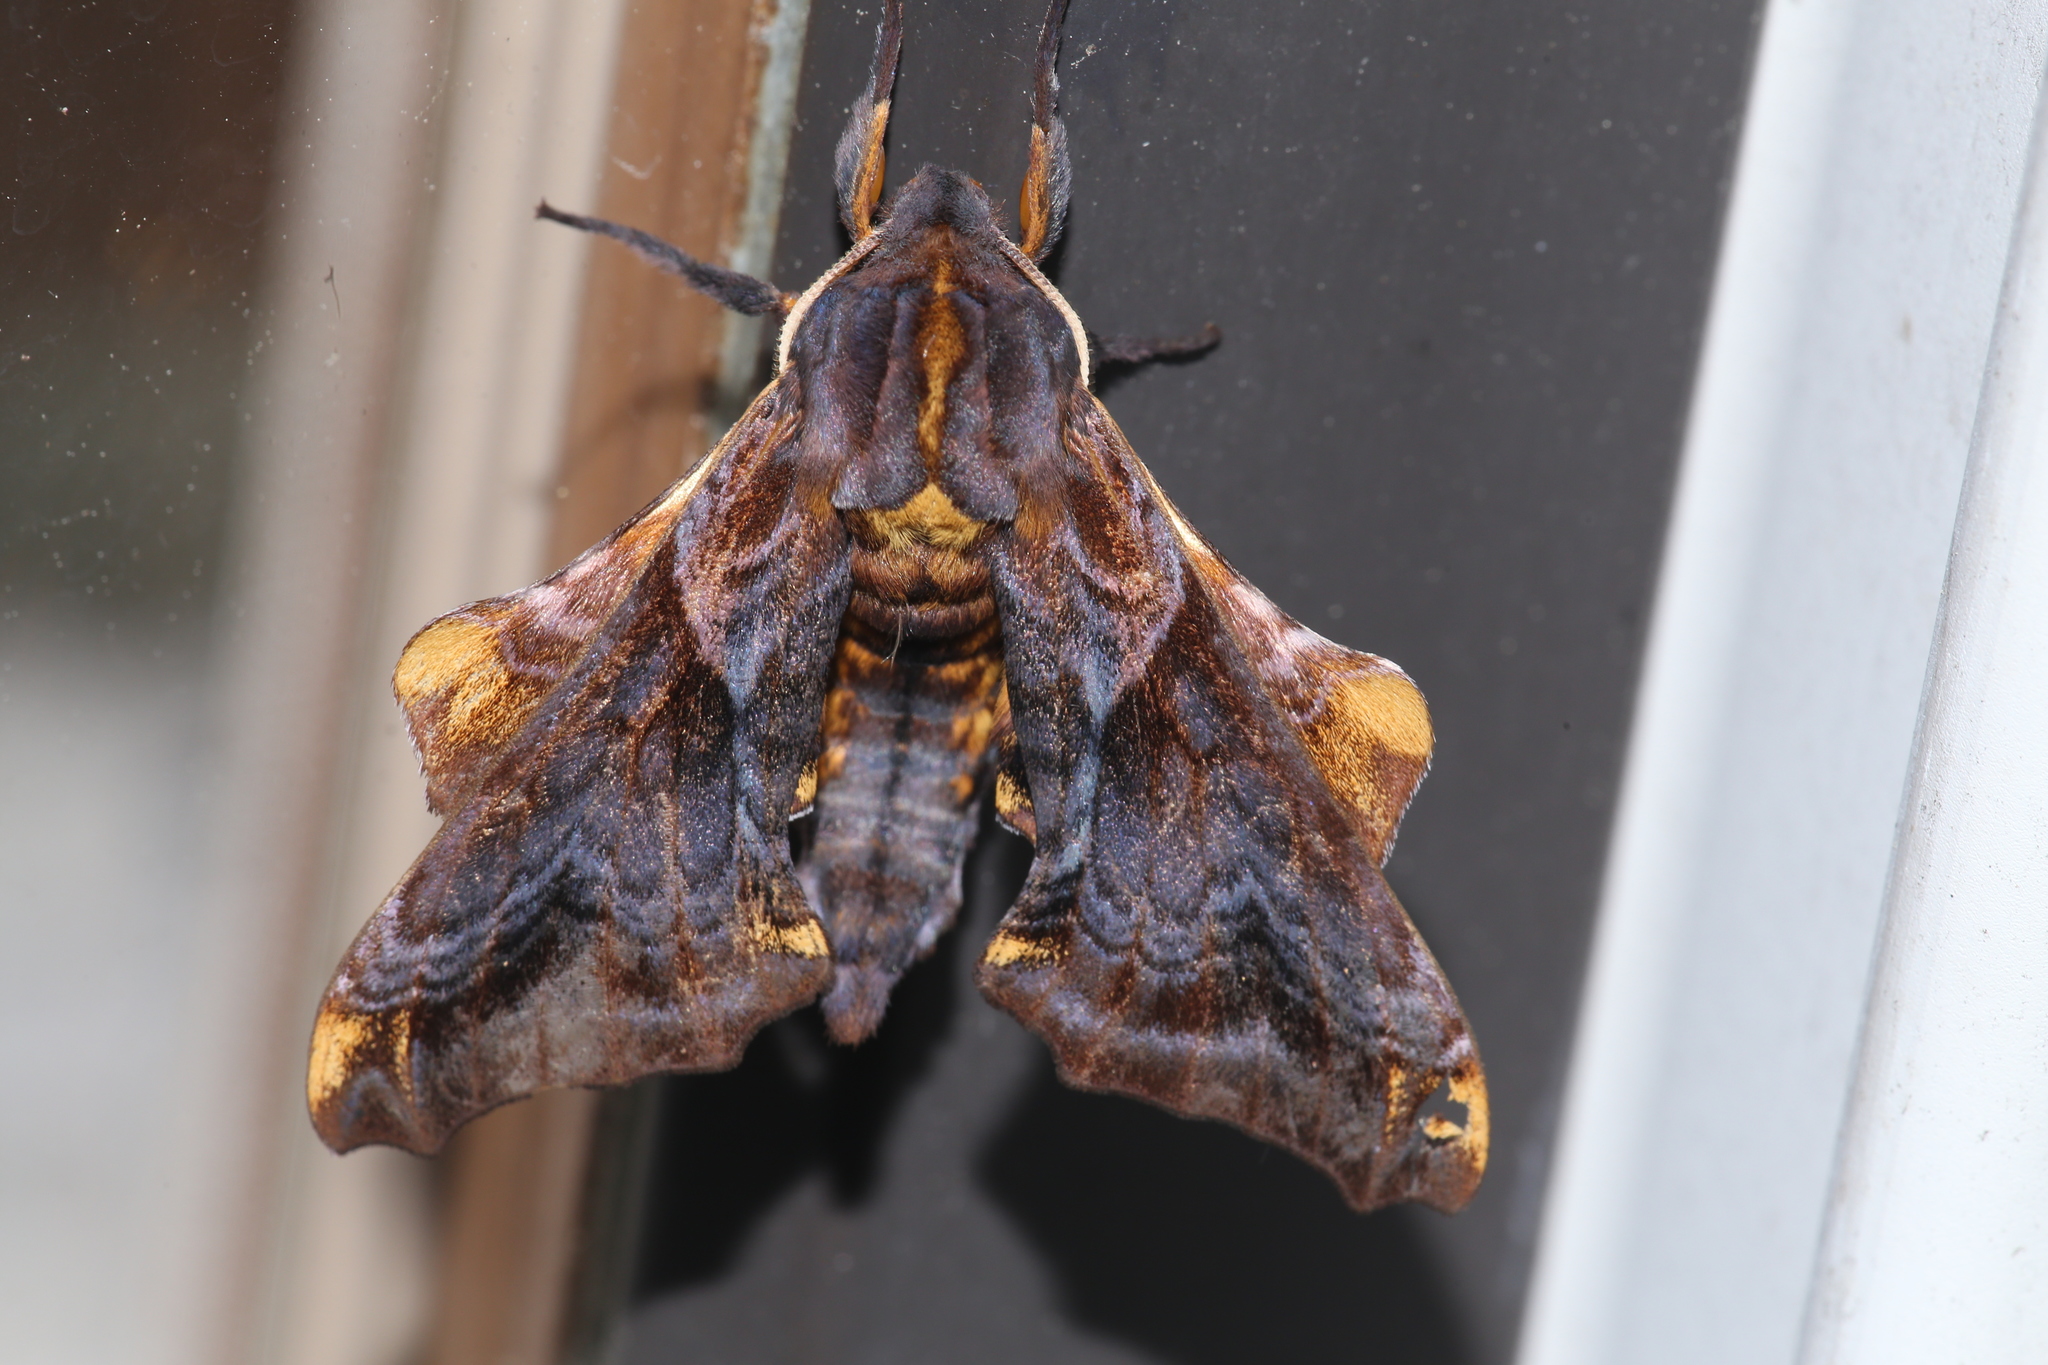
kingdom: Animalia
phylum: Arthropoda
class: Insecta
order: Lepidoptera
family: Sphingidae
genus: Paonias
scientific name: Paonias myops
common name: Small-eyed sphinx
